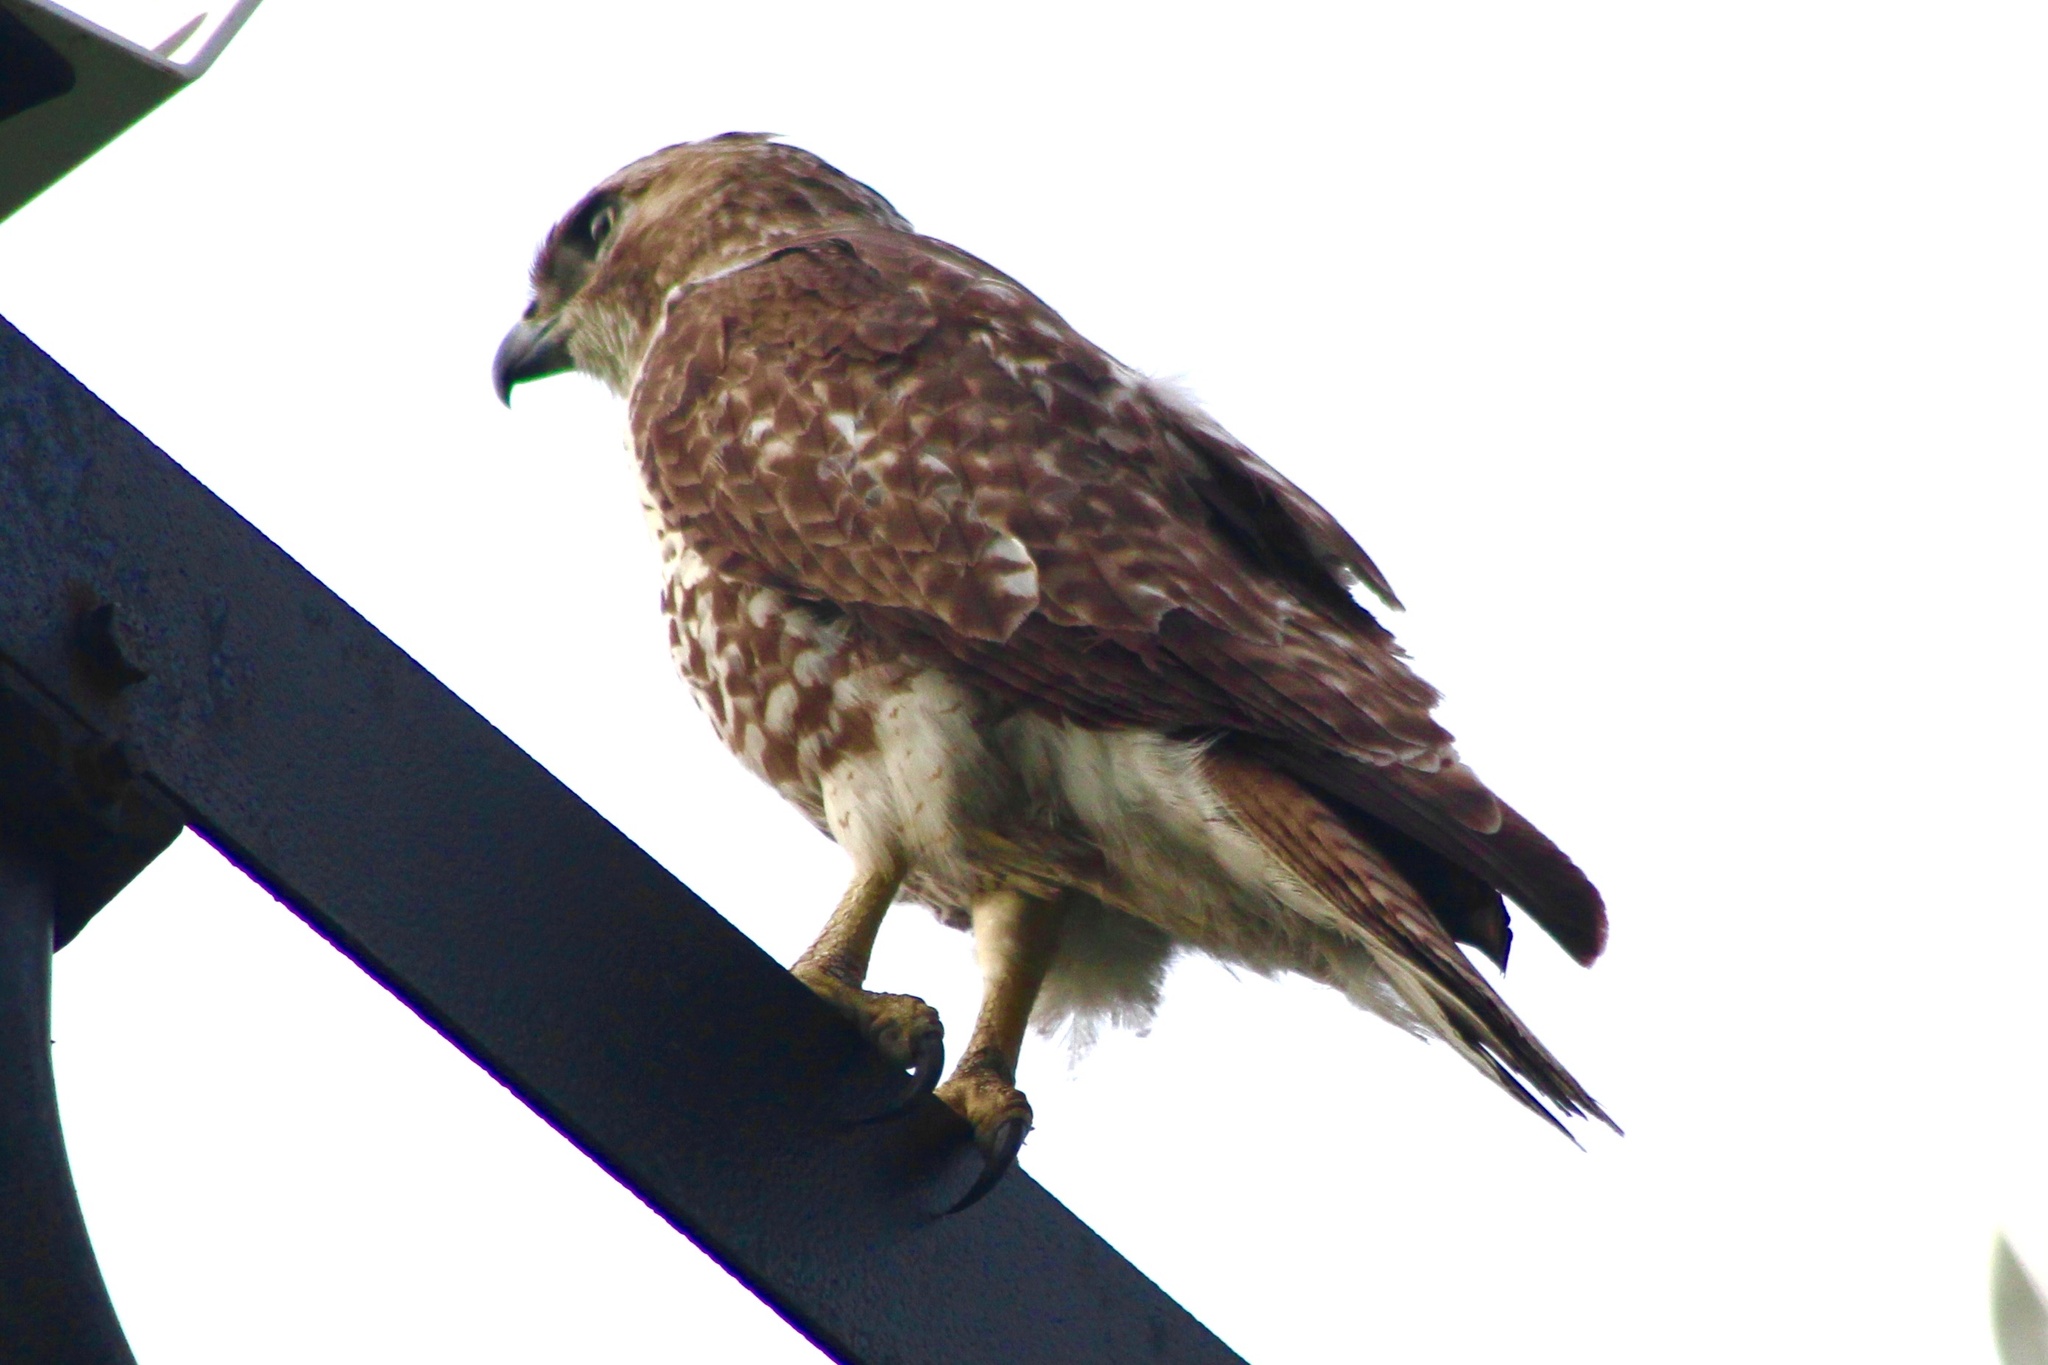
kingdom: Animalia
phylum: Chordata
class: Aves
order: Accipitriformes
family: Accipitridae
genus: Buteo
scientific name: Buteo jamaicensis
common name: Red-tailed hawk
